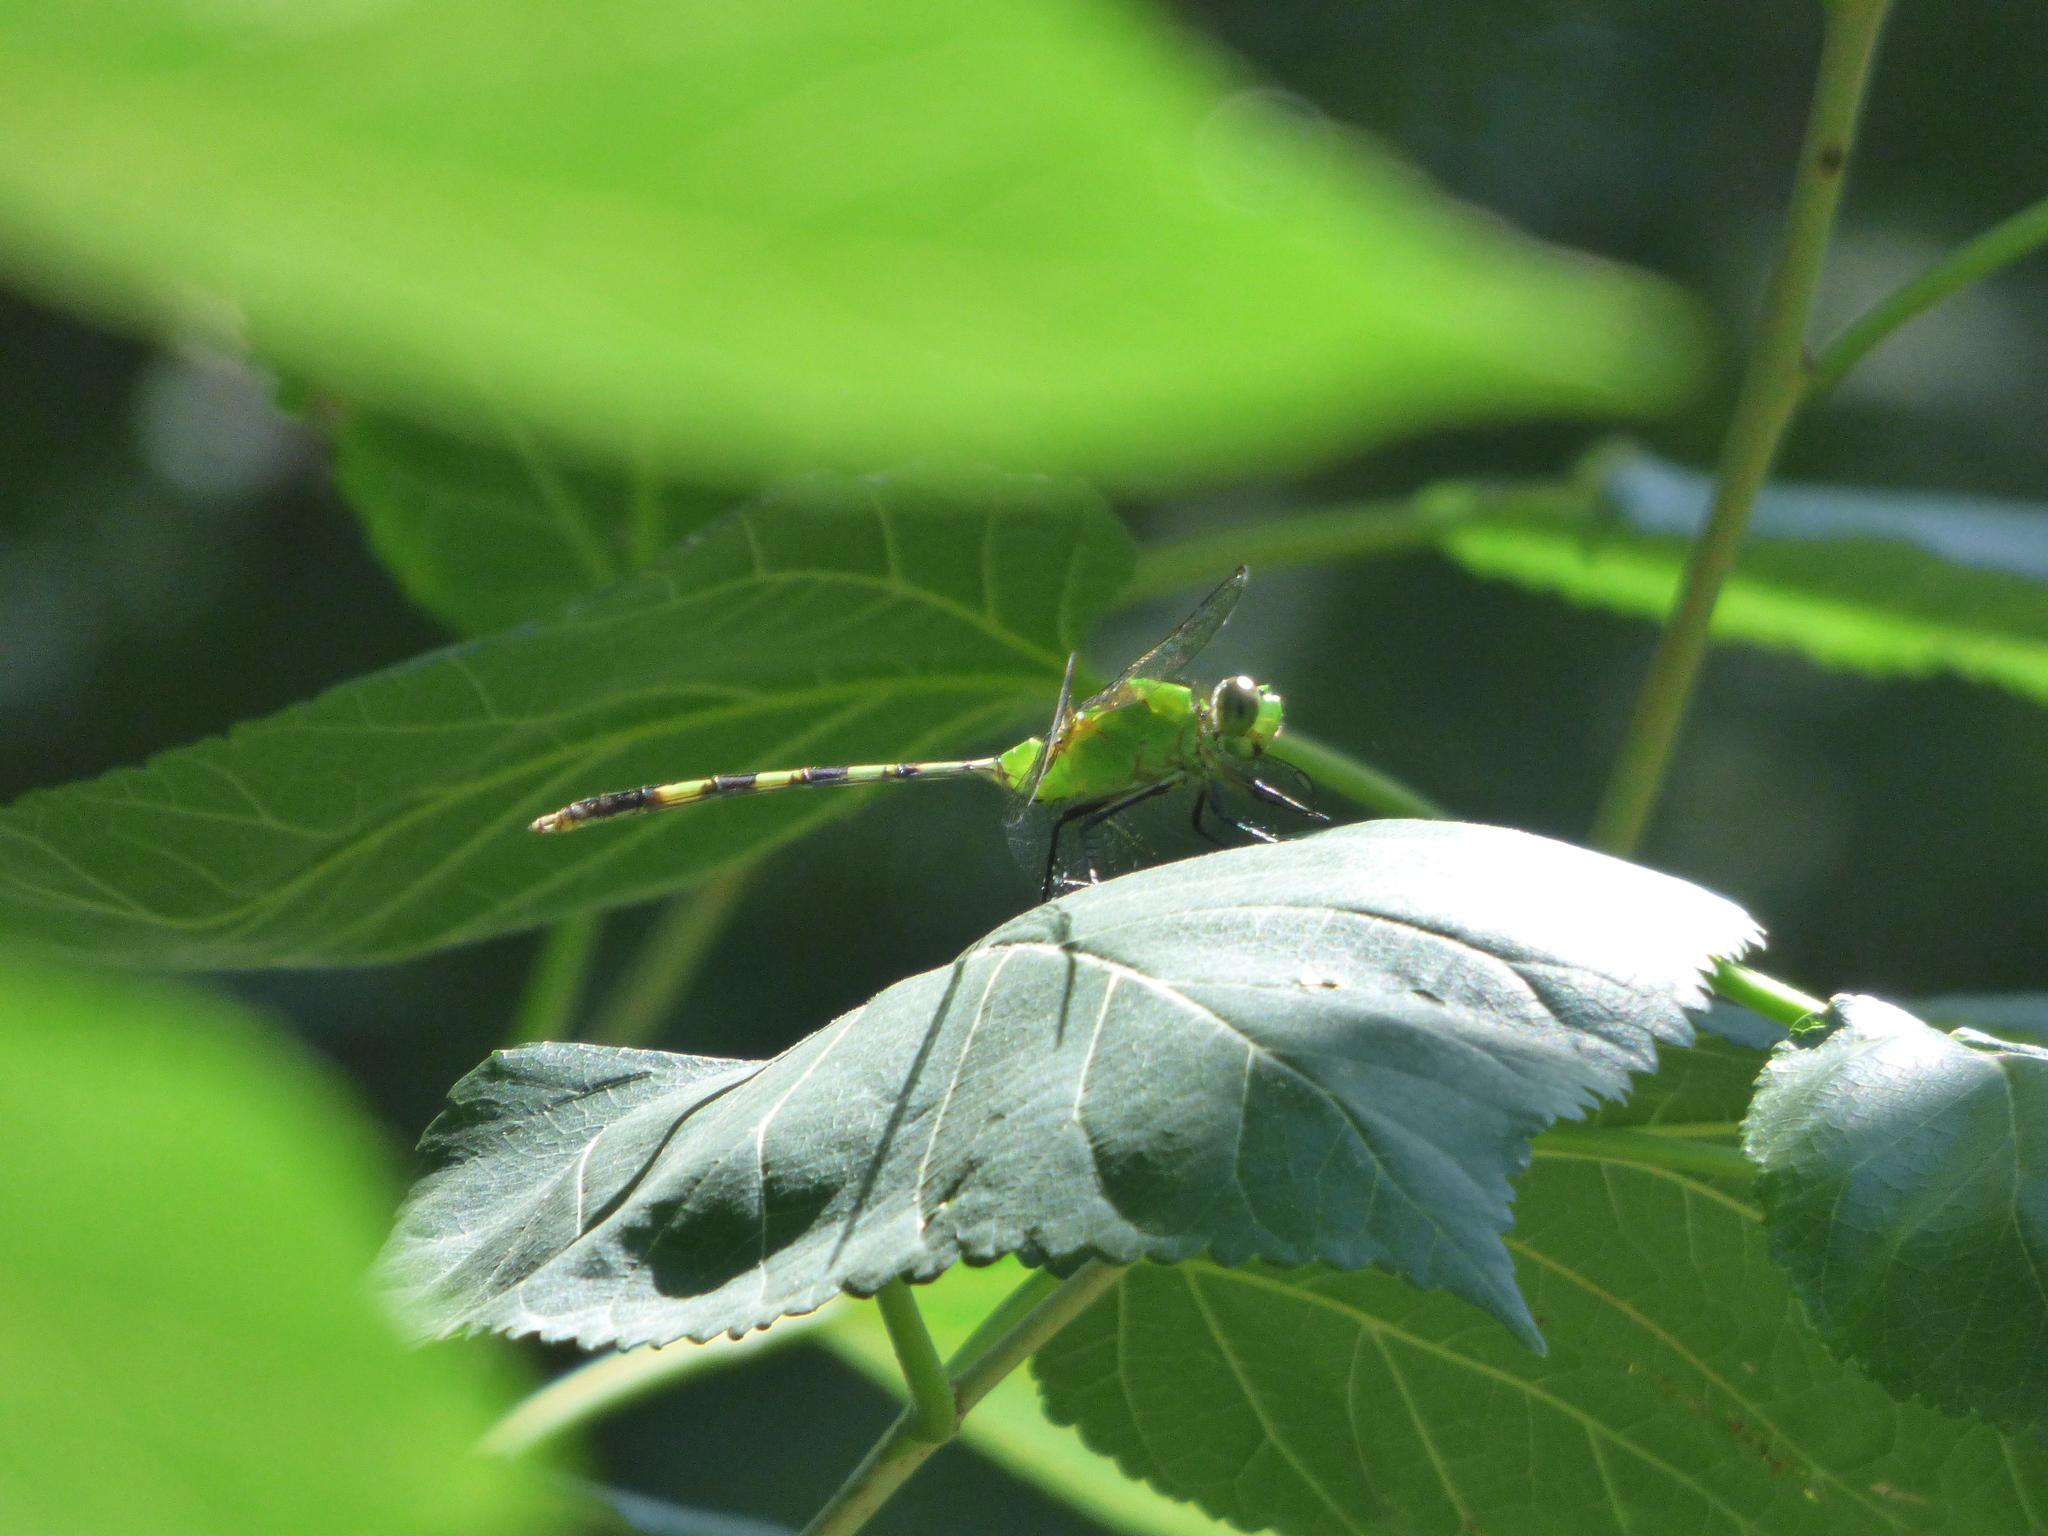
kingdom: Animalia
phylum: Arthropoda
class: Insecta
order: Odonata
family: Libellulidae
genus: Erythemis
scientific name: Erythemis vesiculosa
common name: Great pondhawk
